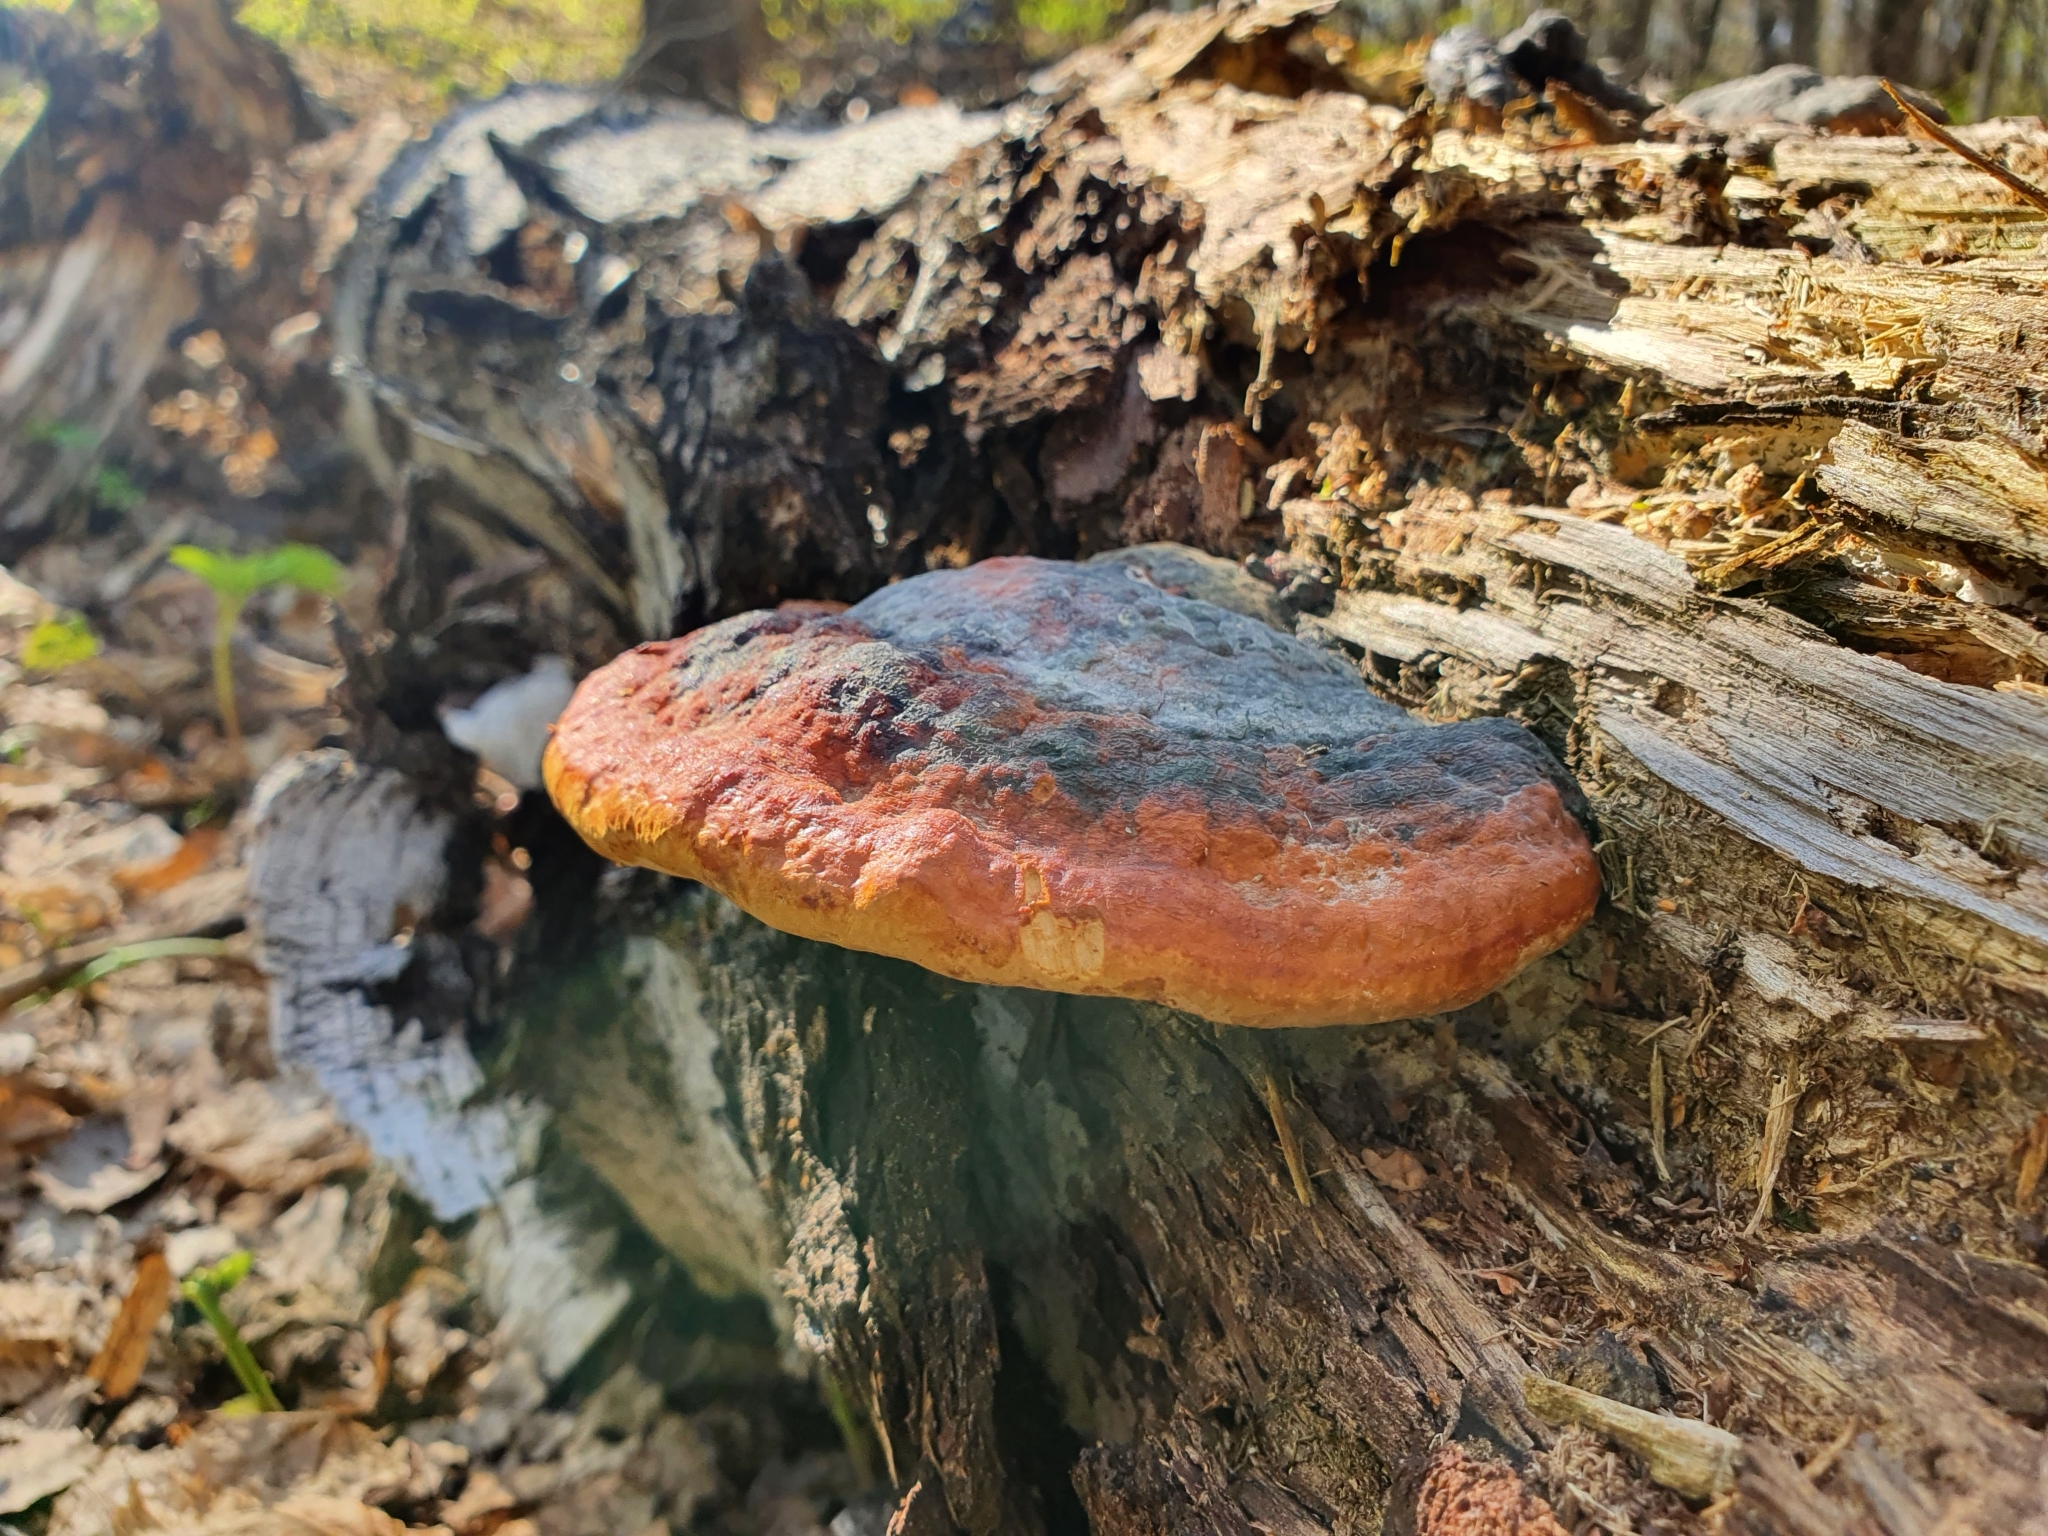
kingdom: Fungi
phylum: Basidiomycota
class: Agaricomycetes
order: Polyporales
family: Fomitopsidaceae
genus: Fomitopsis
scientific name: Fomitopsis pinicola
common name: Red-belted bracket
